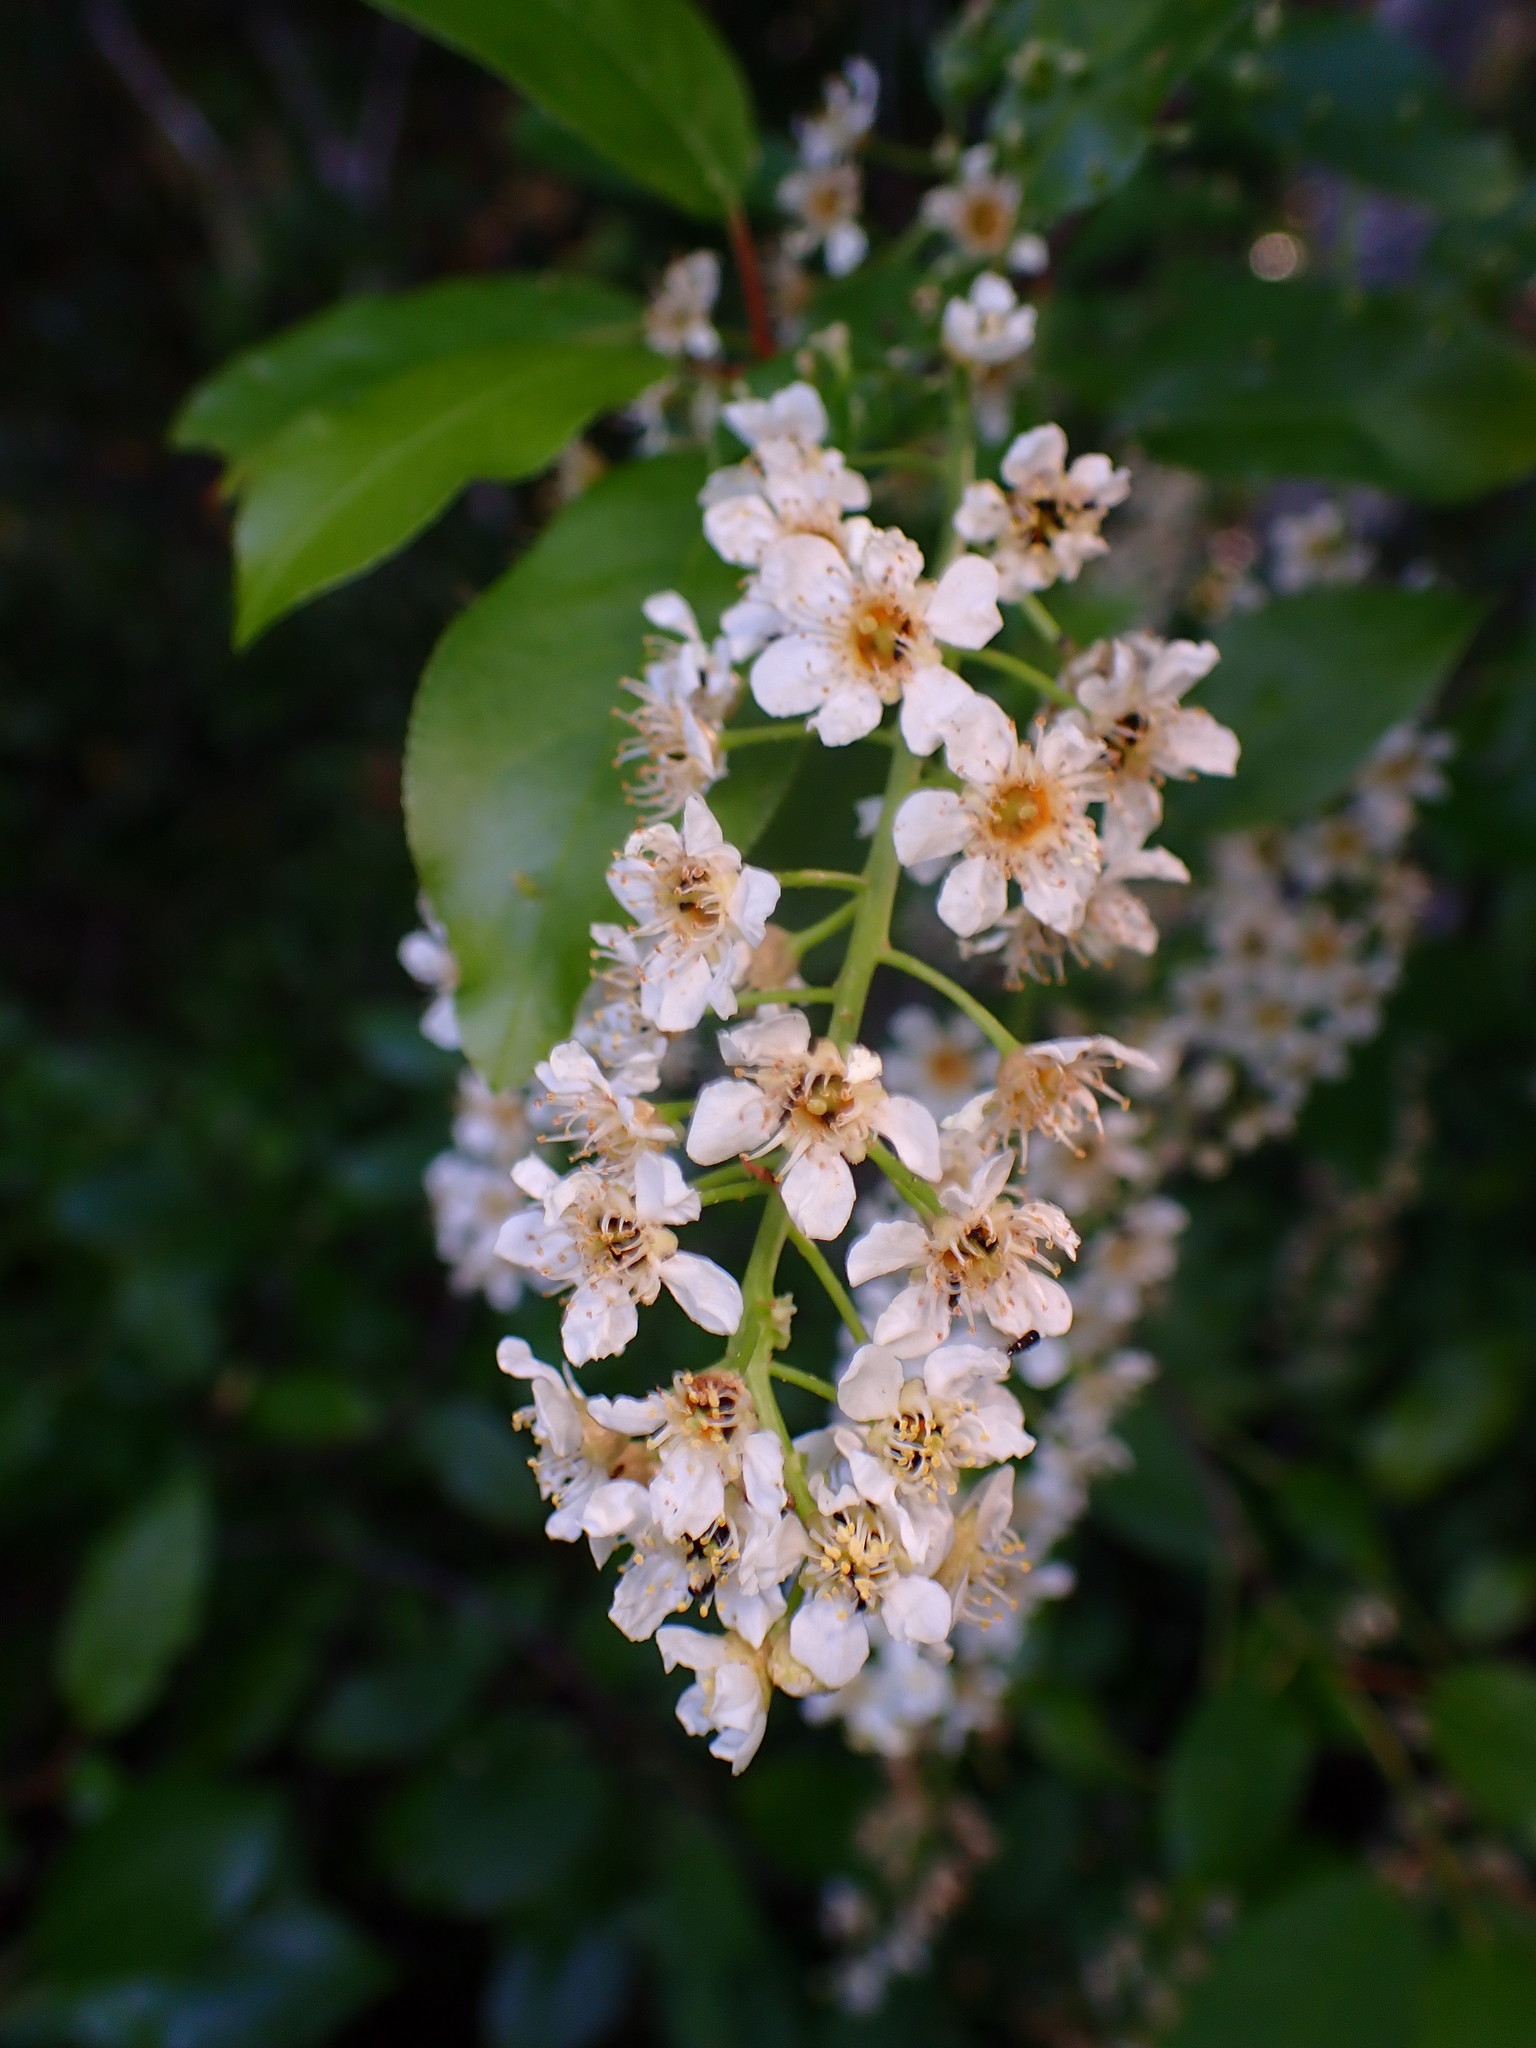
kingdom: Plantae
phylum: Tracheophyta
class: Magnoliopsida
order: Rosales
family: Rosaceae
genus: Prunus
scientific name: Prunus virginiana
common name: Chokecherry
